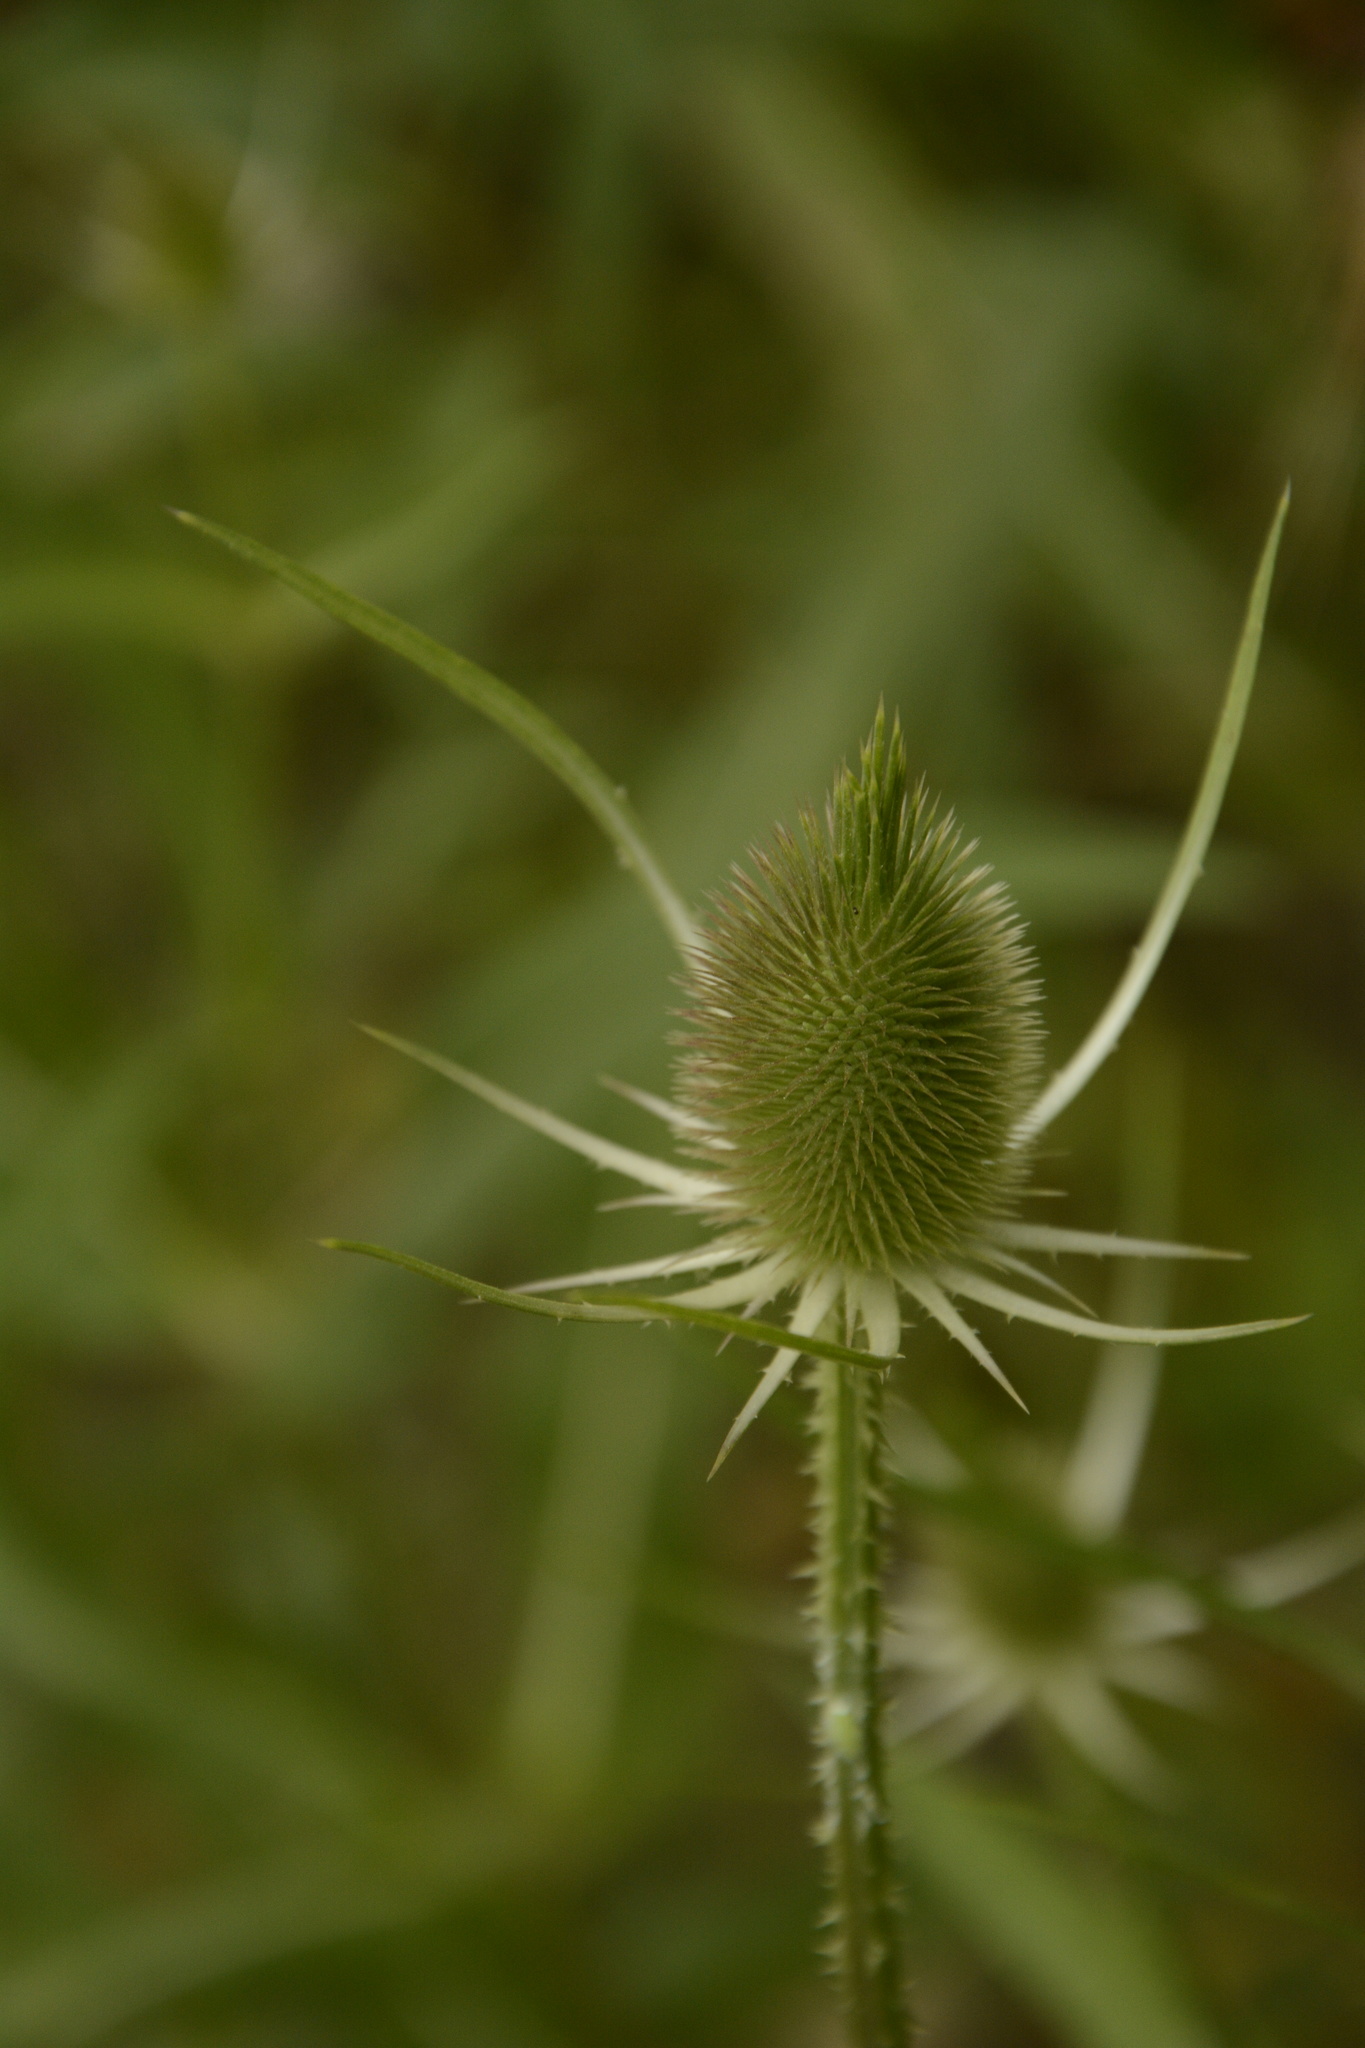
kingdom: Plantae
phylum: Tracheophyta
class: Magnoliopsida
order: Dipsacales
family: Caprifoliaceae
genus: Dipsacus
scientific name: Dipsacus fullonum
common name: Teasel
